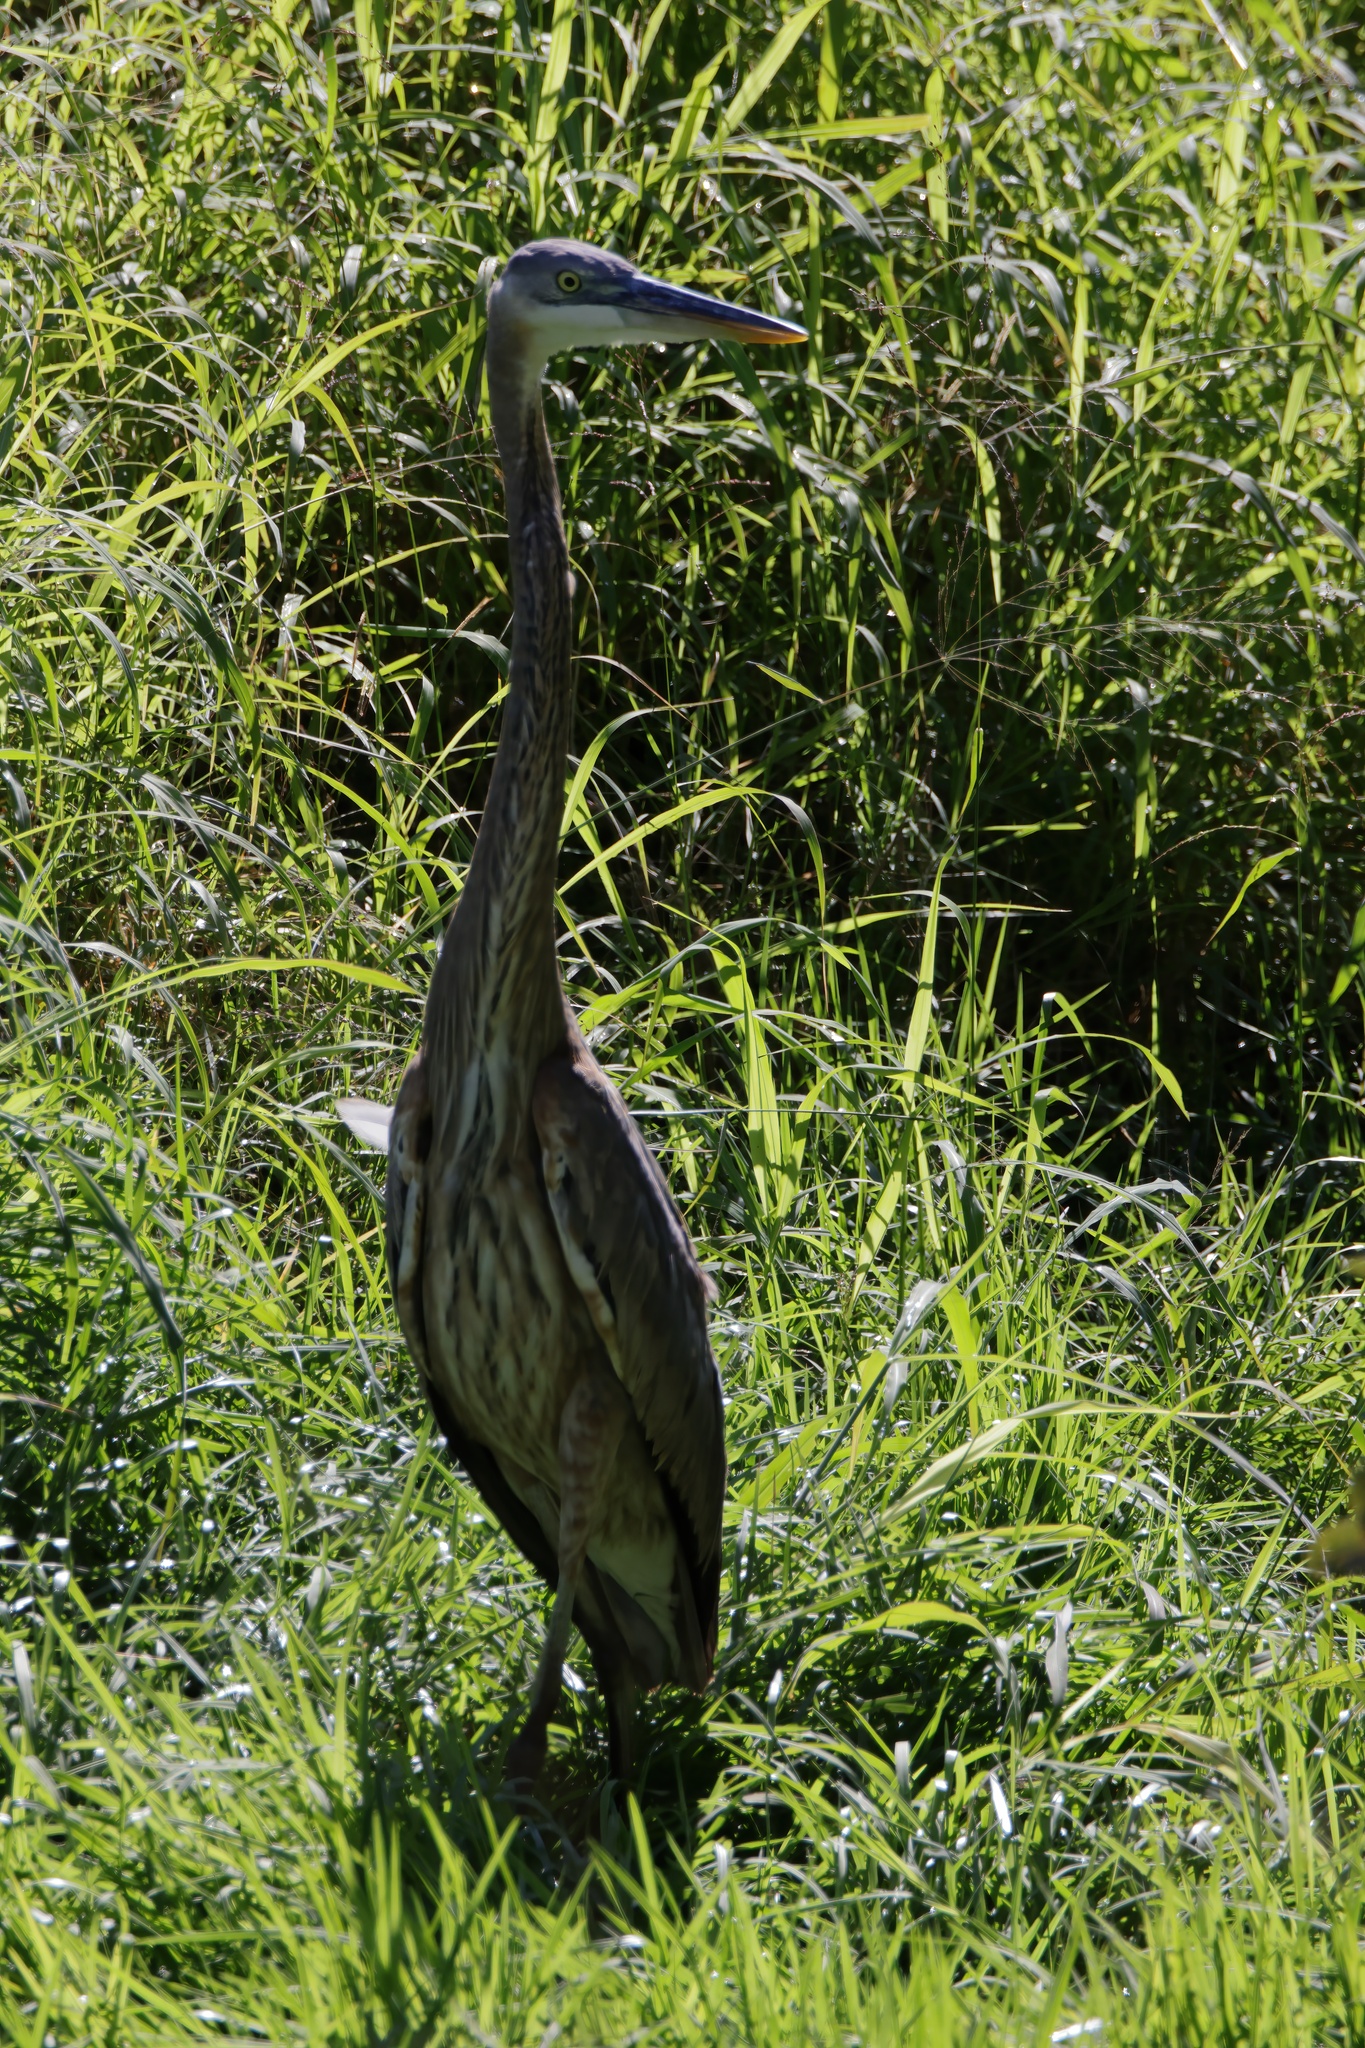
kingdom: Animalia
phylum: Chordata
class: Aves
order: Pelecaniformes
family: Ardeidae
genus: Ardea
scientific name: Ardea herodias
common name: Great blue heron
